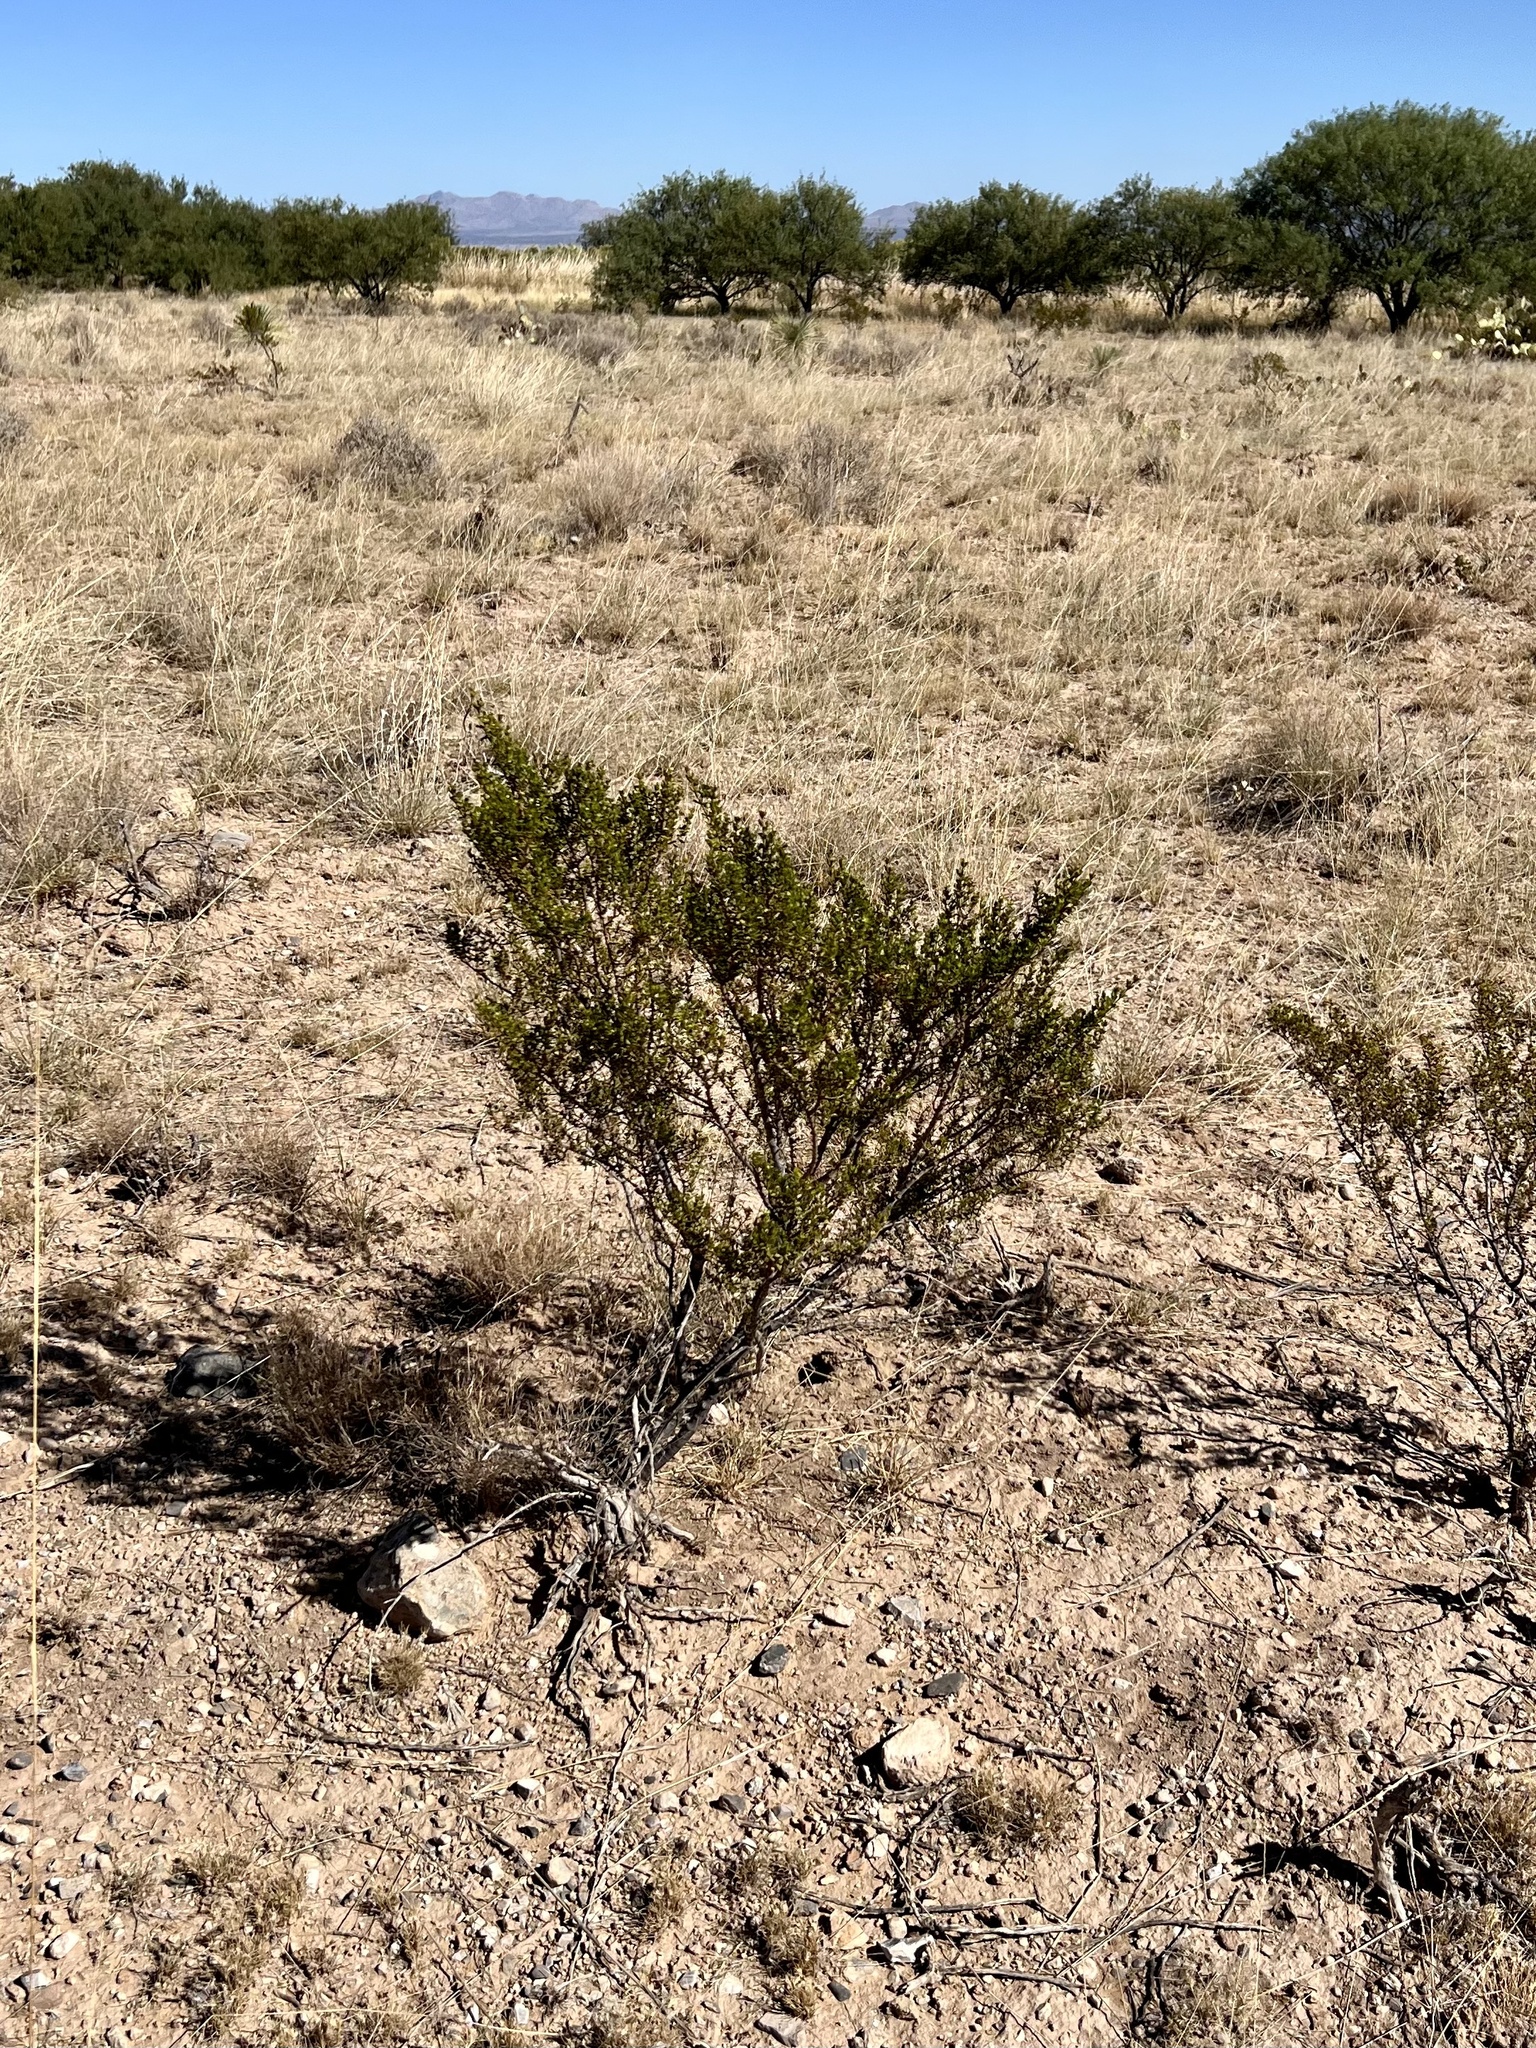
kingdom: Plantae
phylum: Tracheophyta
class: Magnoliopsida
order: Zygophyllales
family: Zygophyllaceae
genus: Larrea
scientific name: Larrea tridentata
